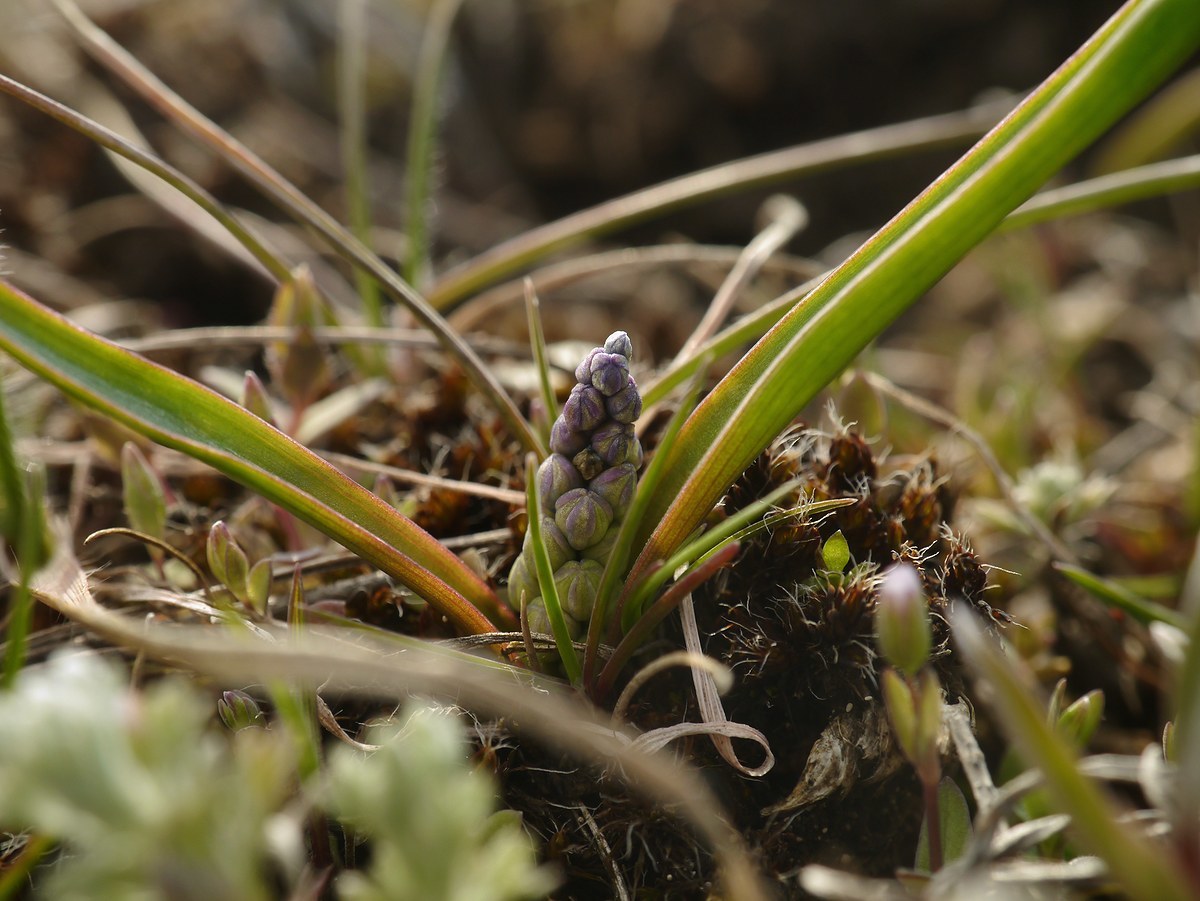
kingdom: Plantae
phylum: Tracheophyta
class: Liliopsida
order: Asparagales
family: Asparagaceae
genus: Hyacinthella
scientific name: Hyacinthella leucophaea
